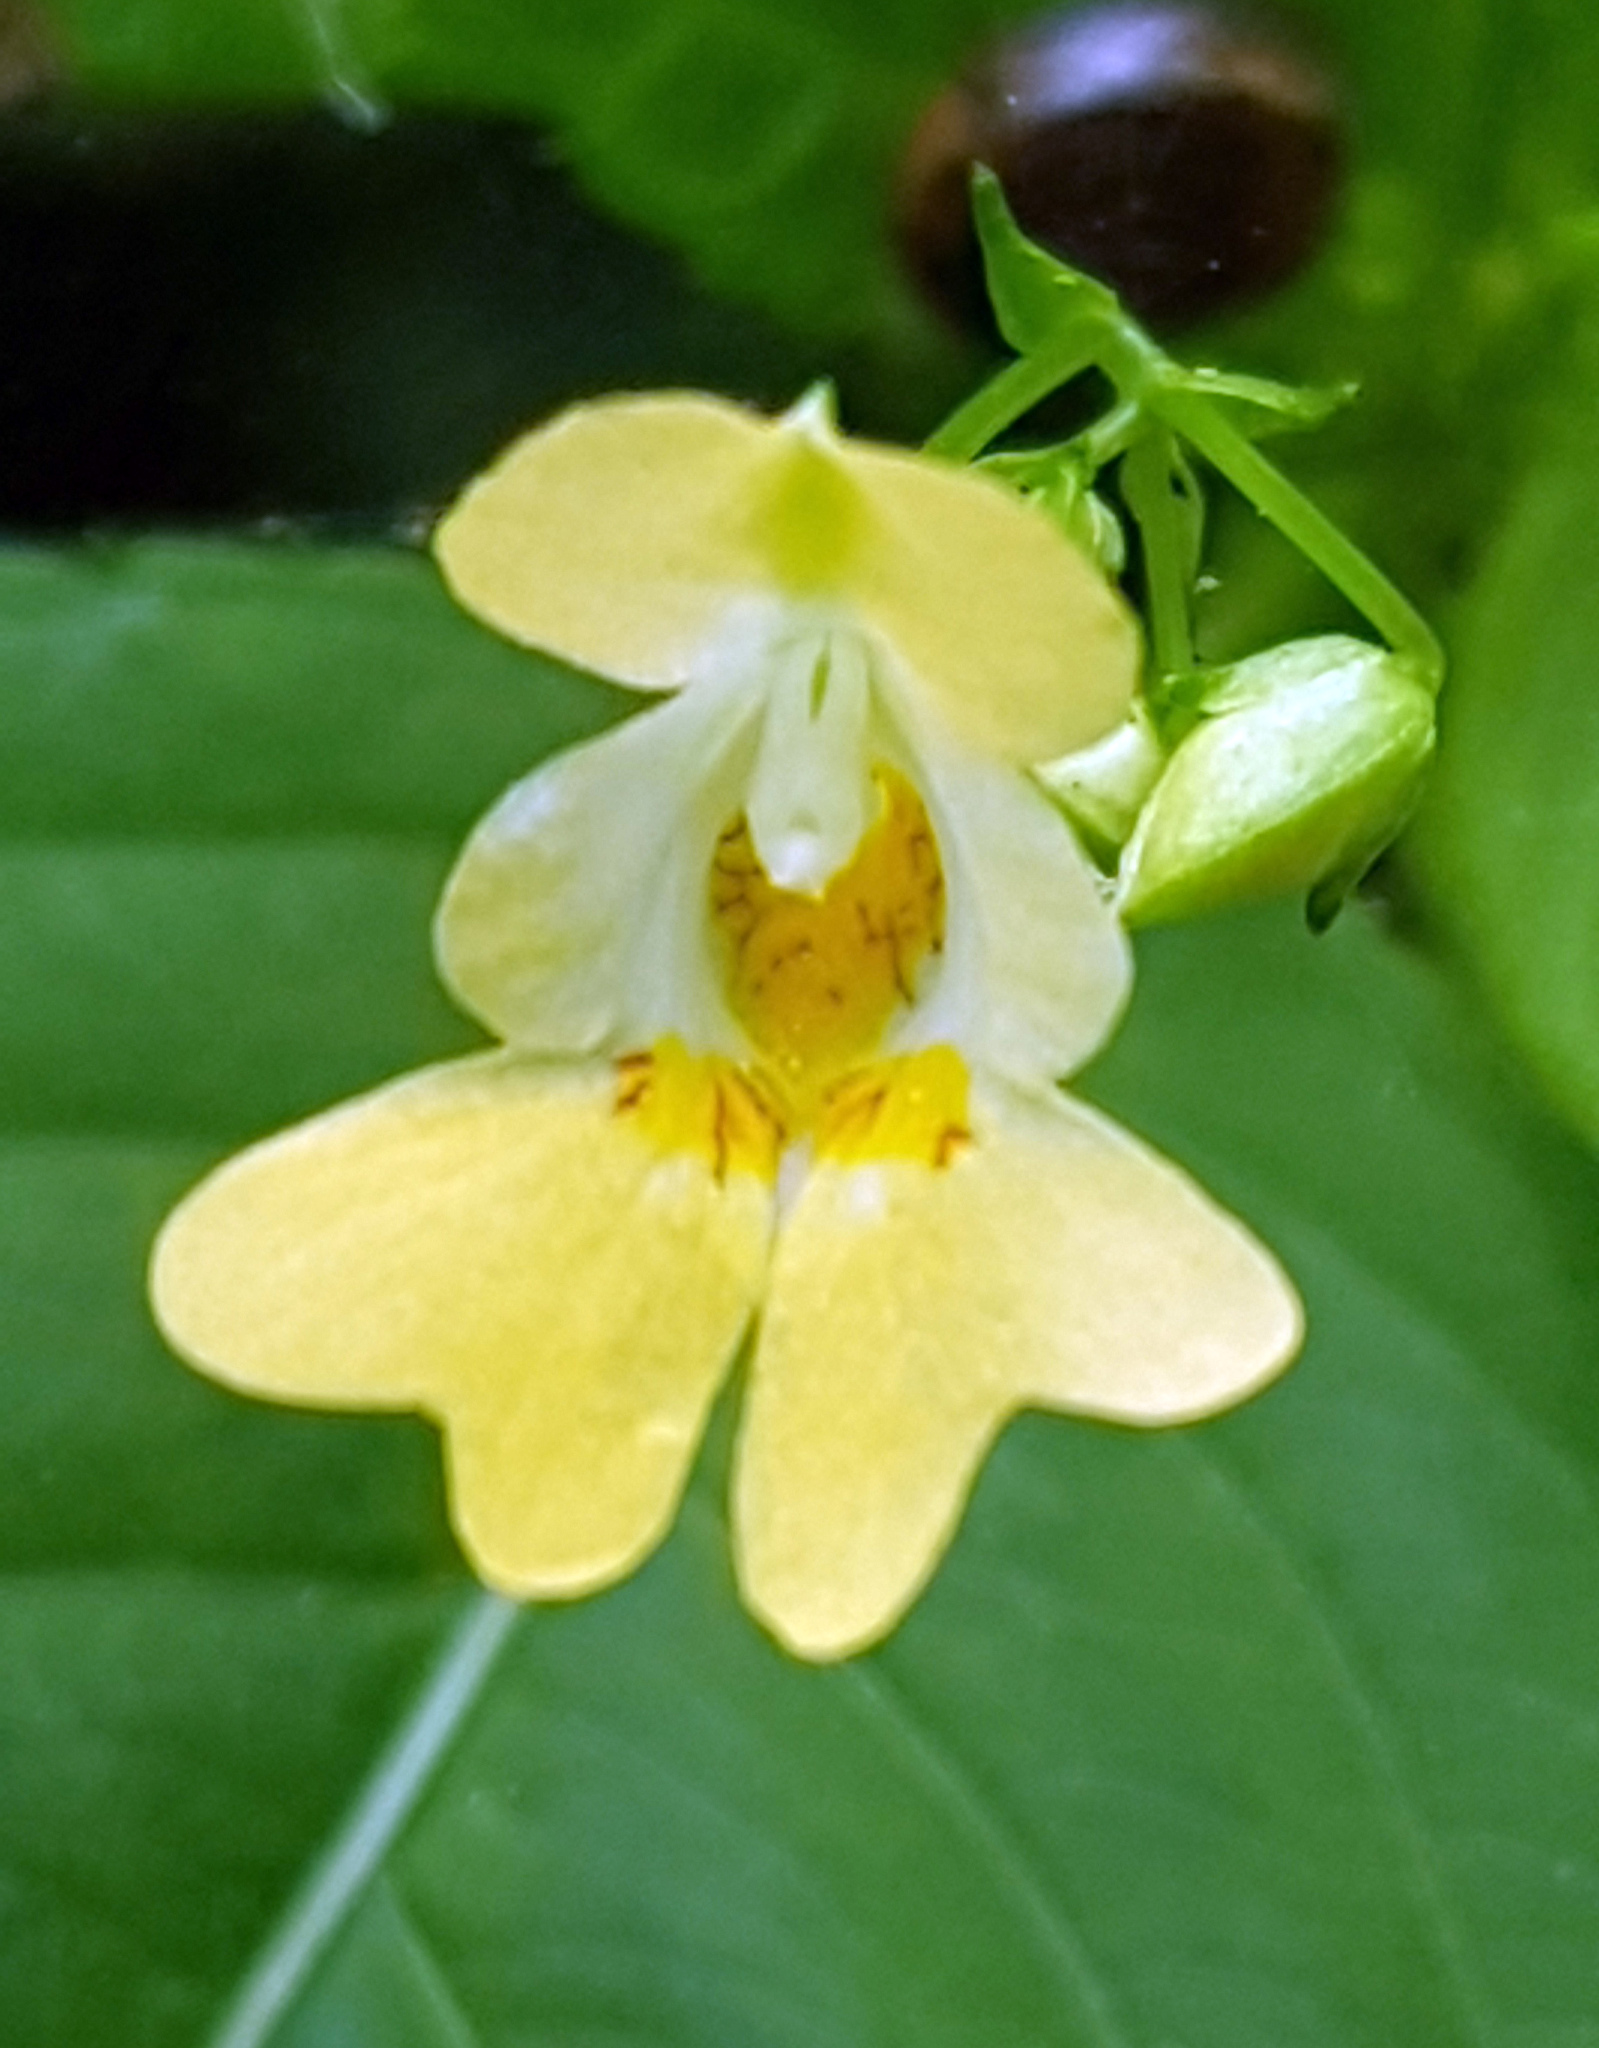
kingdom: Plantae
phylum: Tracheophyta
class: Magnoliopsida
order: Ericales
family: Balsaminaceae
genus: Impatiens
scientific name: Impatiens parviflora
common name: Small balsam
